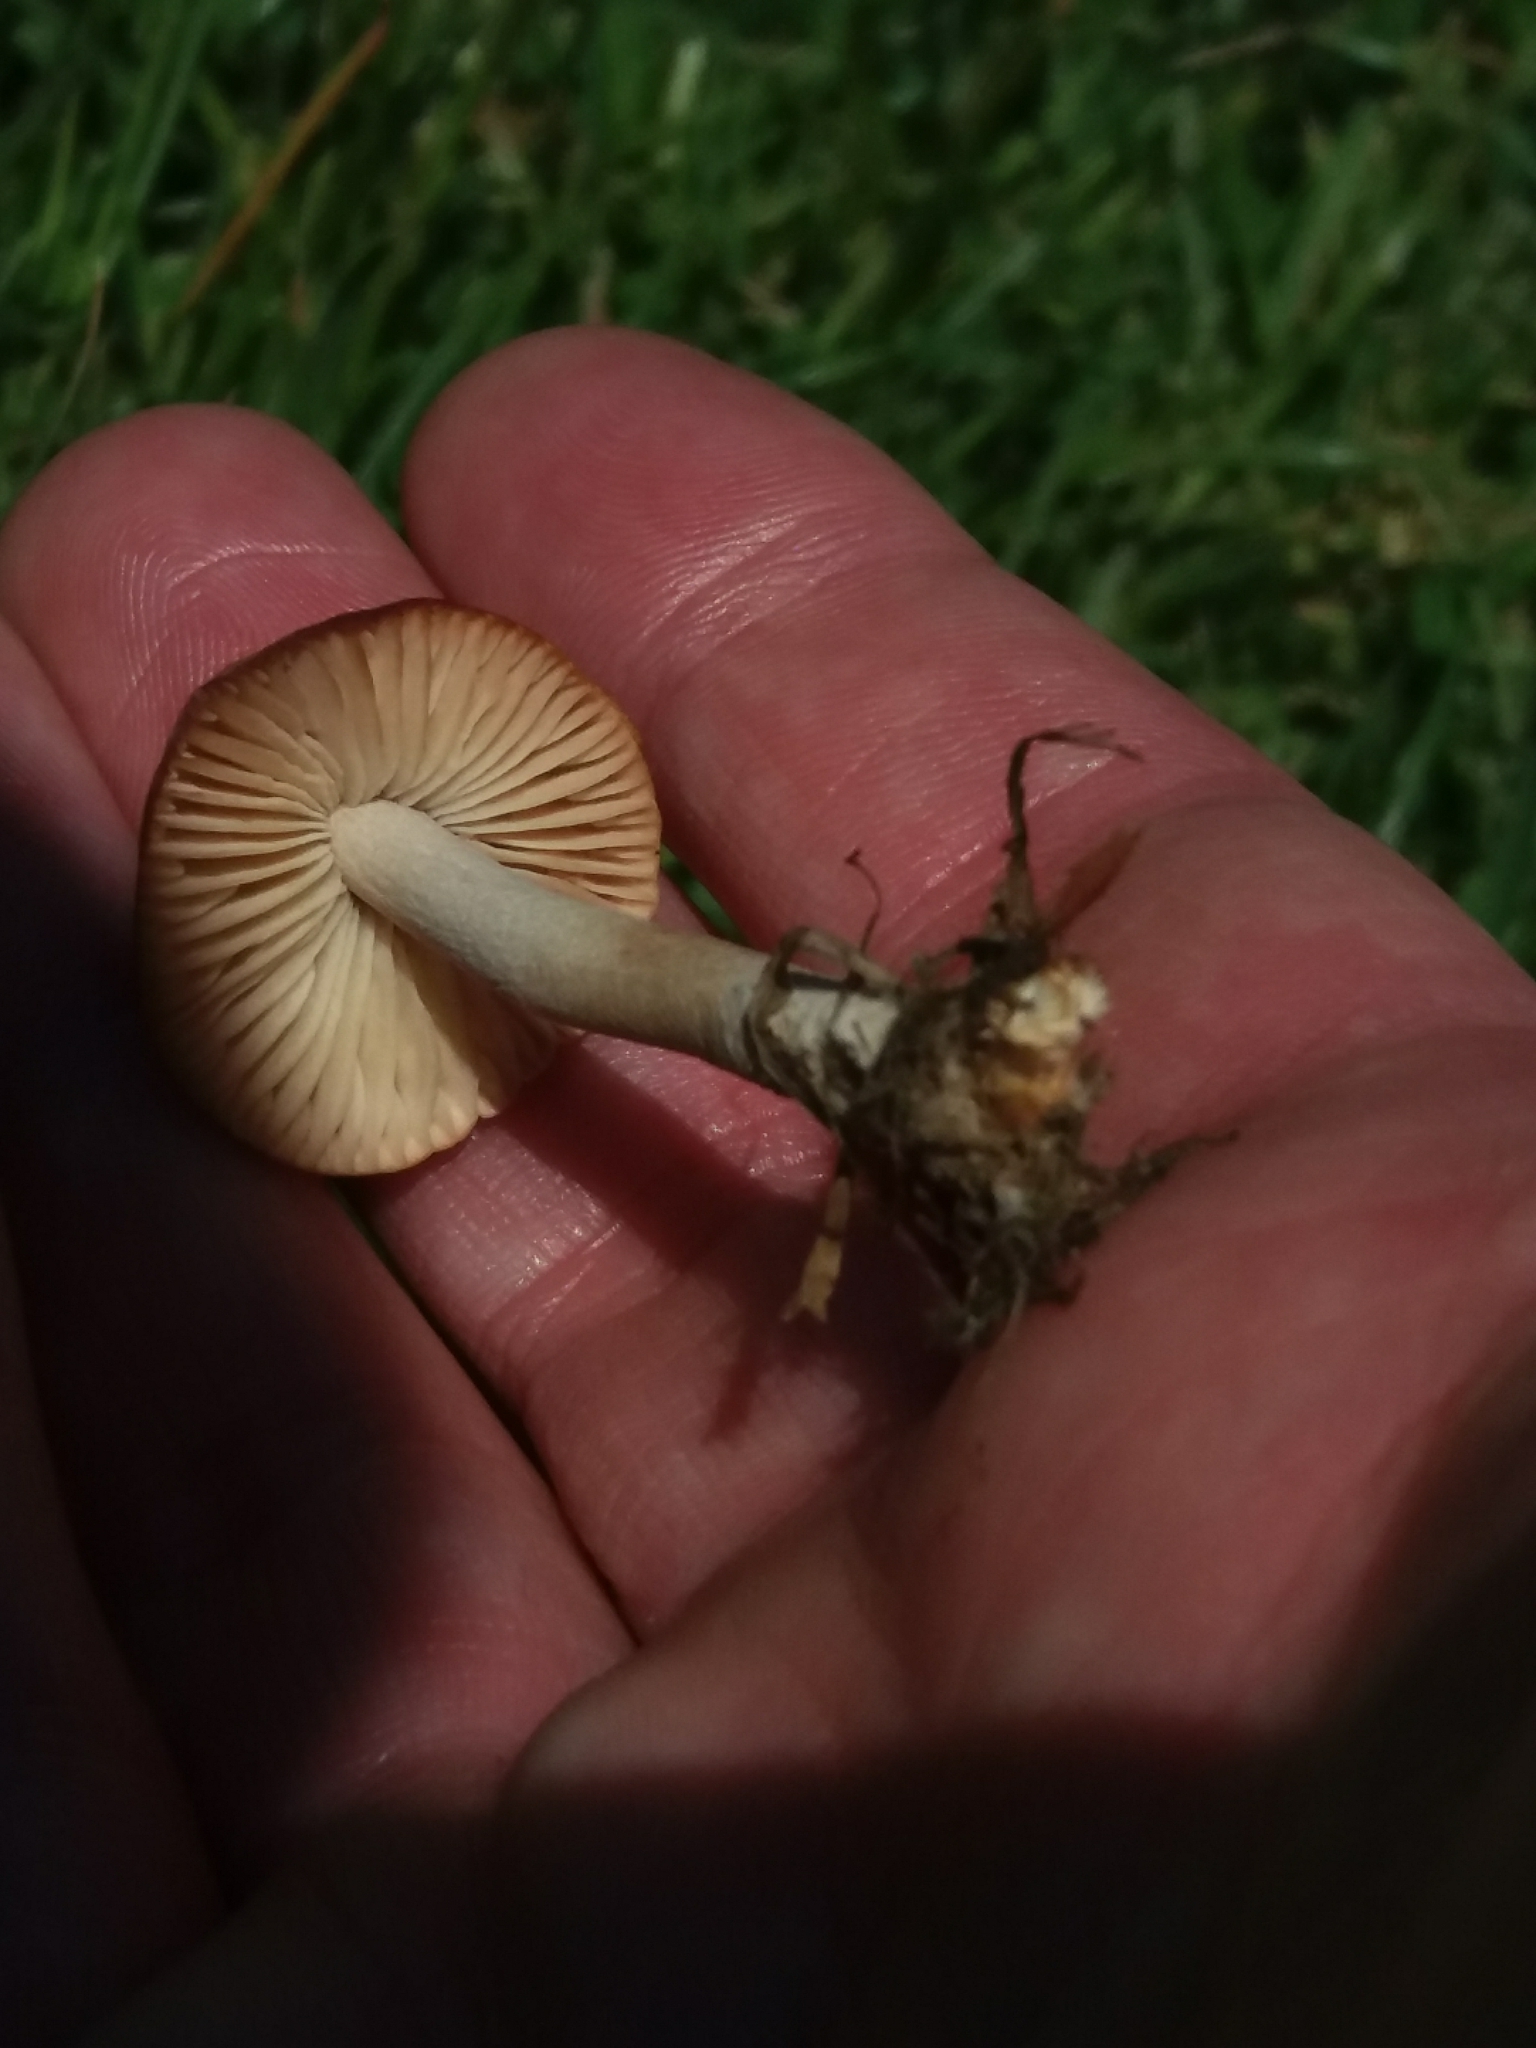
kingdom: Fungi
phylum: Basidiomycota
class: Agaricomycetes
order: Agaricales
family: Marasmiaceae
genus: Marasmius
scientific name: Marasmius oreades
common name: Fairy ring champignon
